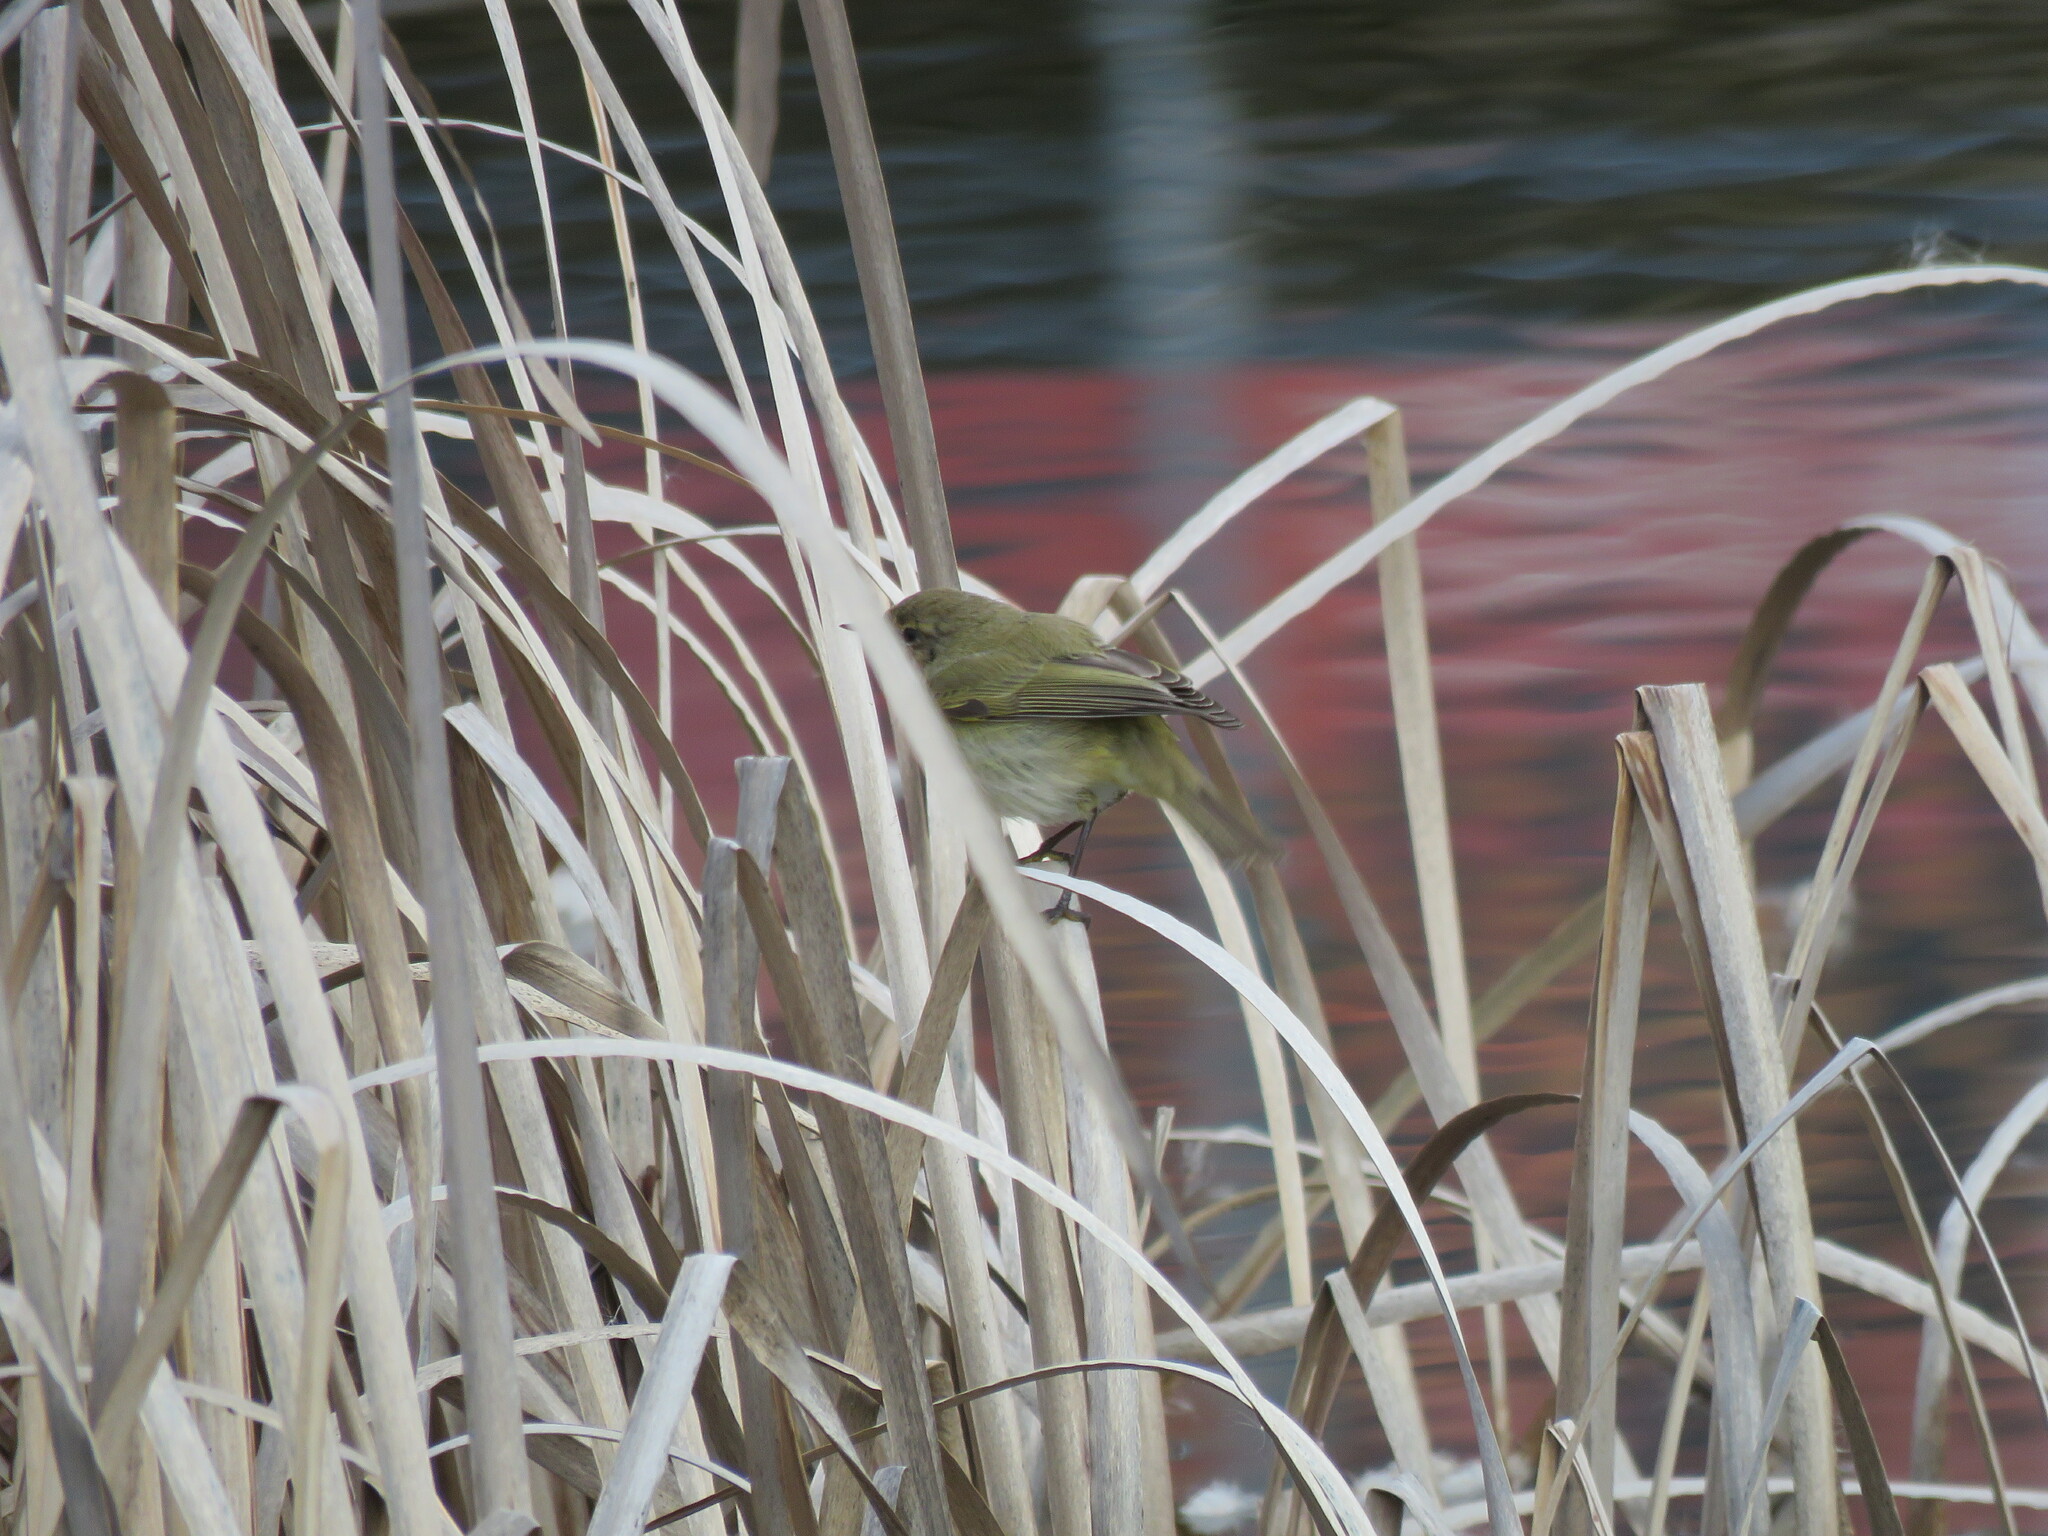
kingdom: Animalia
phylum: Chordata
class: Aves
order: Passeriformes
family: Phylloscopidae
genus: Phylloscopus
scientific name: Phylloscopus collybita
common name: Common chiffchaff
